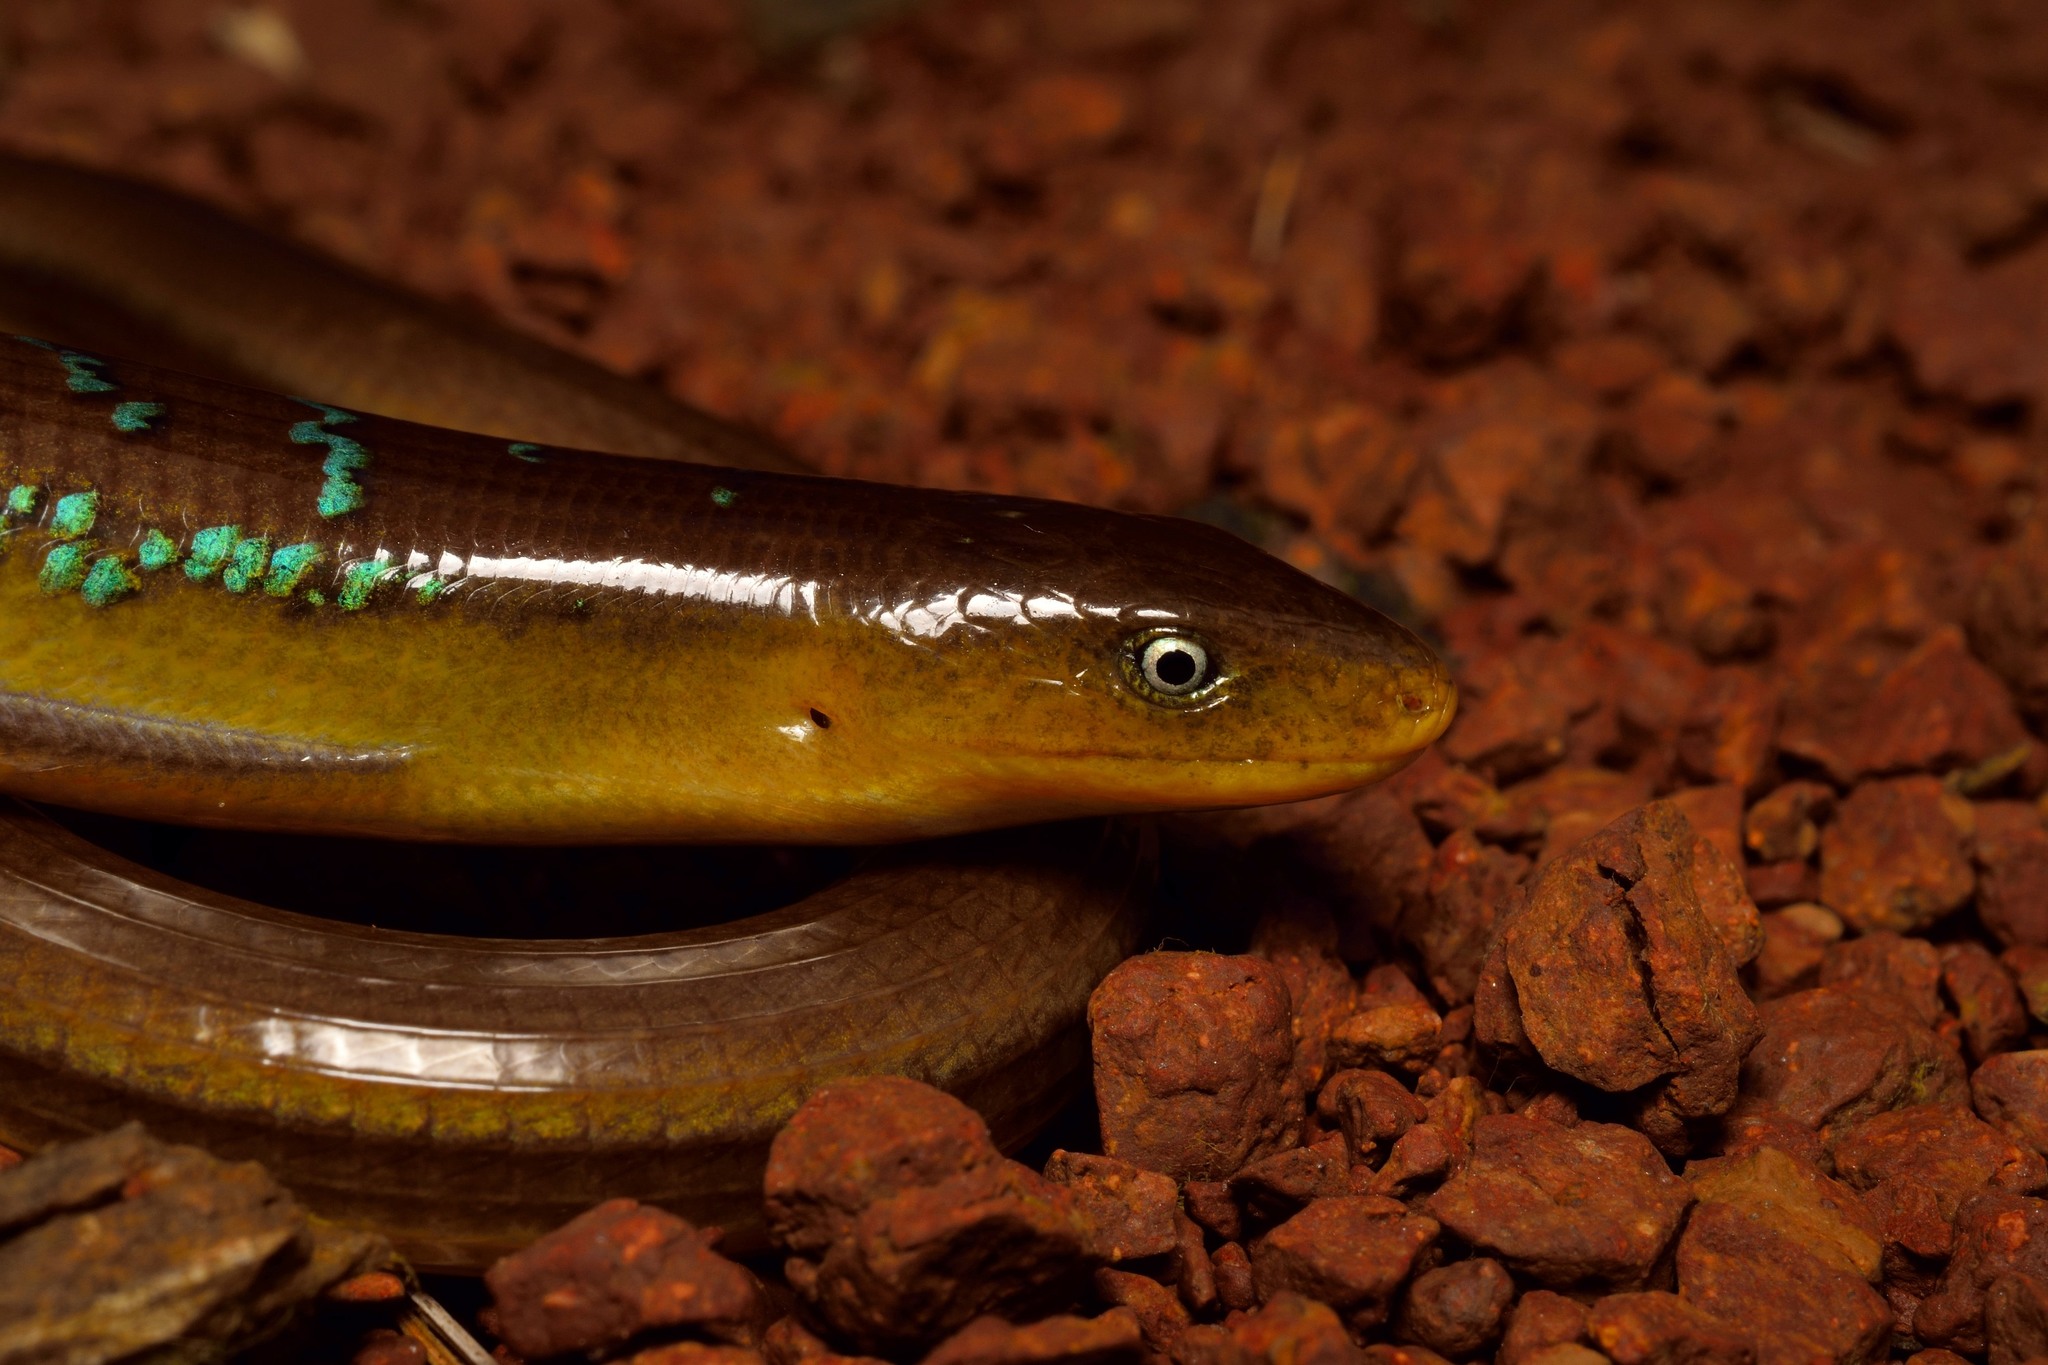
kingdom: Animalia
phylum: Chordata
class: Squamata
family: Anguidae
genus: Dopasia
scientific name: Dopasia gracilis
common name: Asian glass lizard
